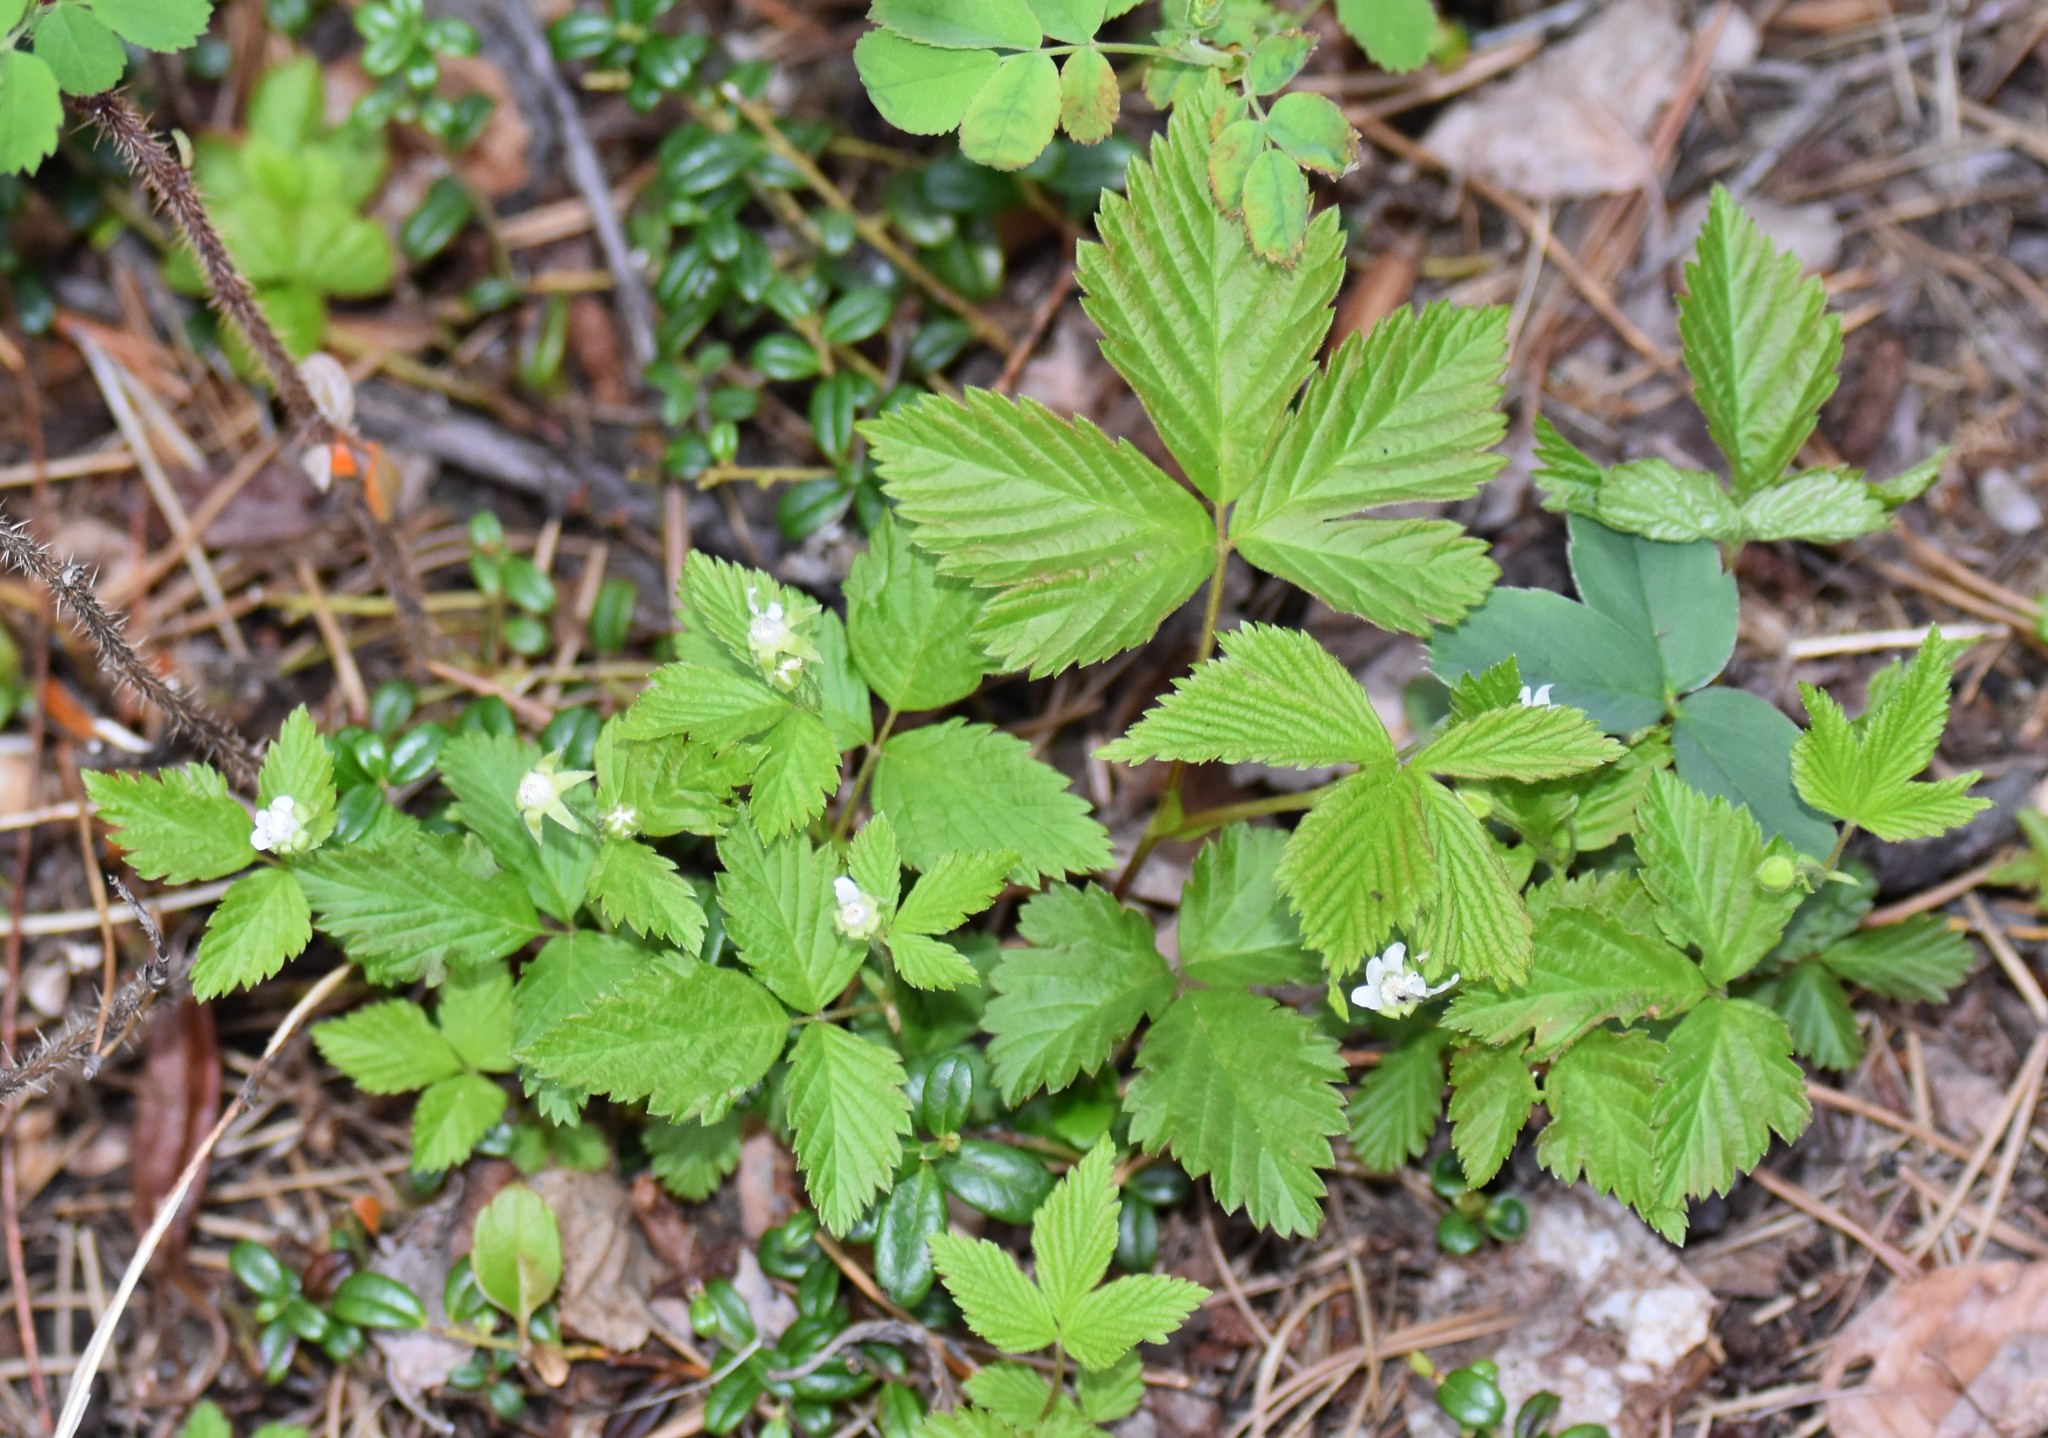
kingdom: Plantae
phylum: Tracheophyta
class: Magnoliopsida
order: Rosales
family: Rosaceae
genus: Rubus
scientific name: Rubus pubescens
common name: Dwarf raspberry
